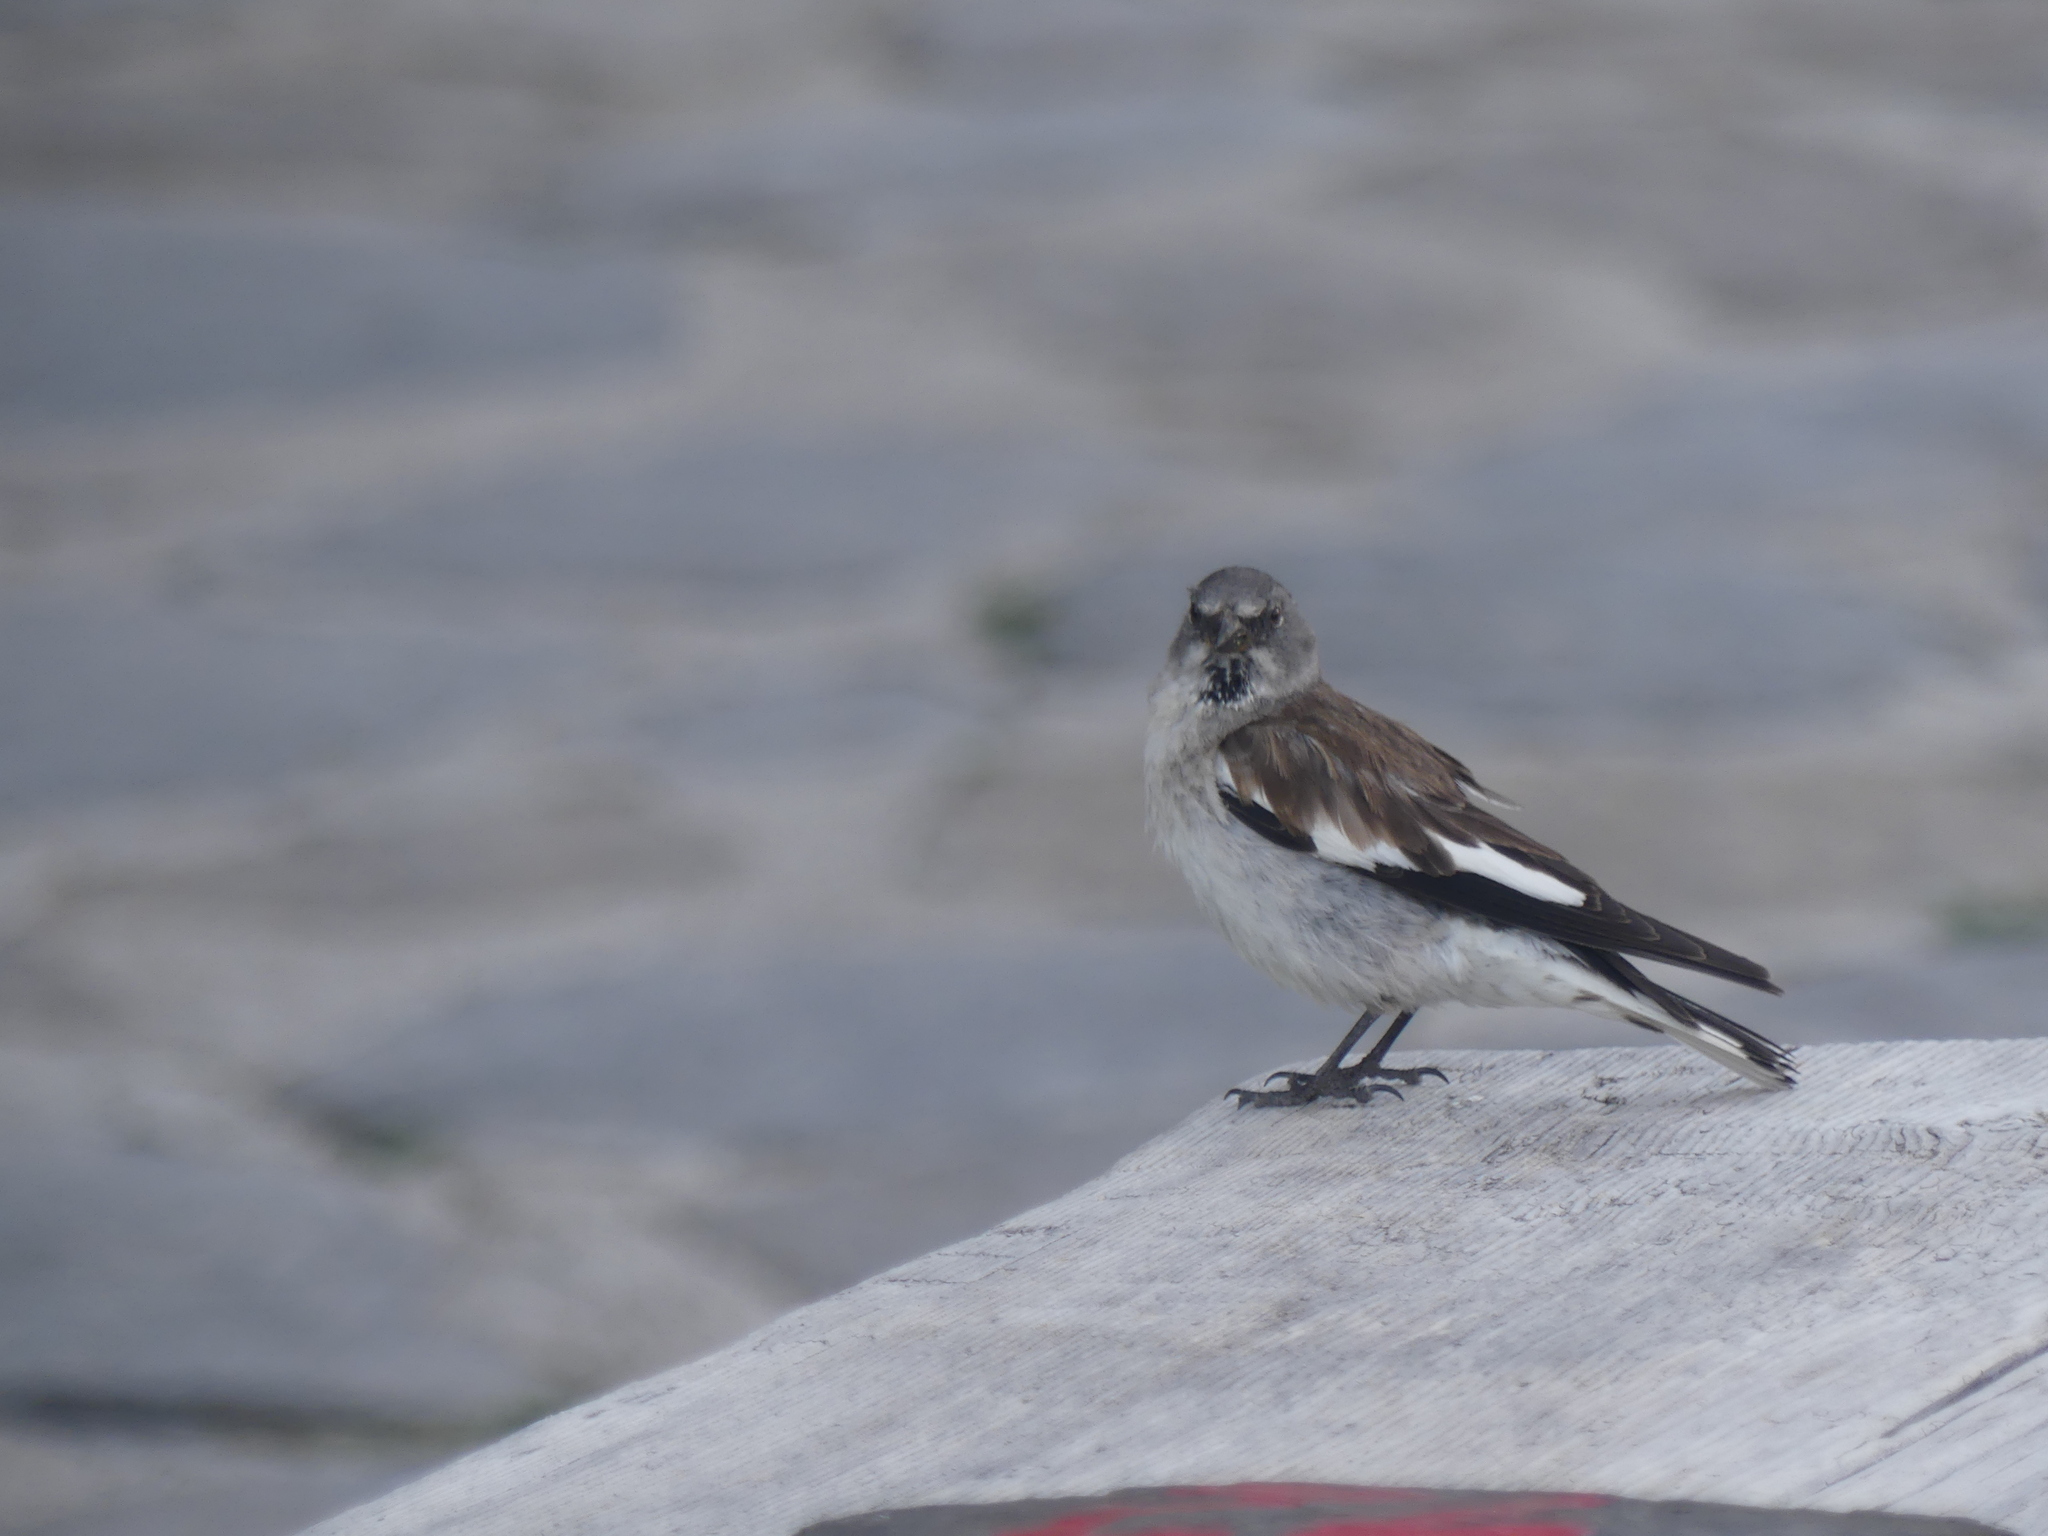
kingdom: Animalia
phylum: Chordata
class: Aves
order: Passeriformes
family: Passeridae
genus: Montifringilla
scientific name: Montifringilla nivalis
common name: White-winged snowfinch
